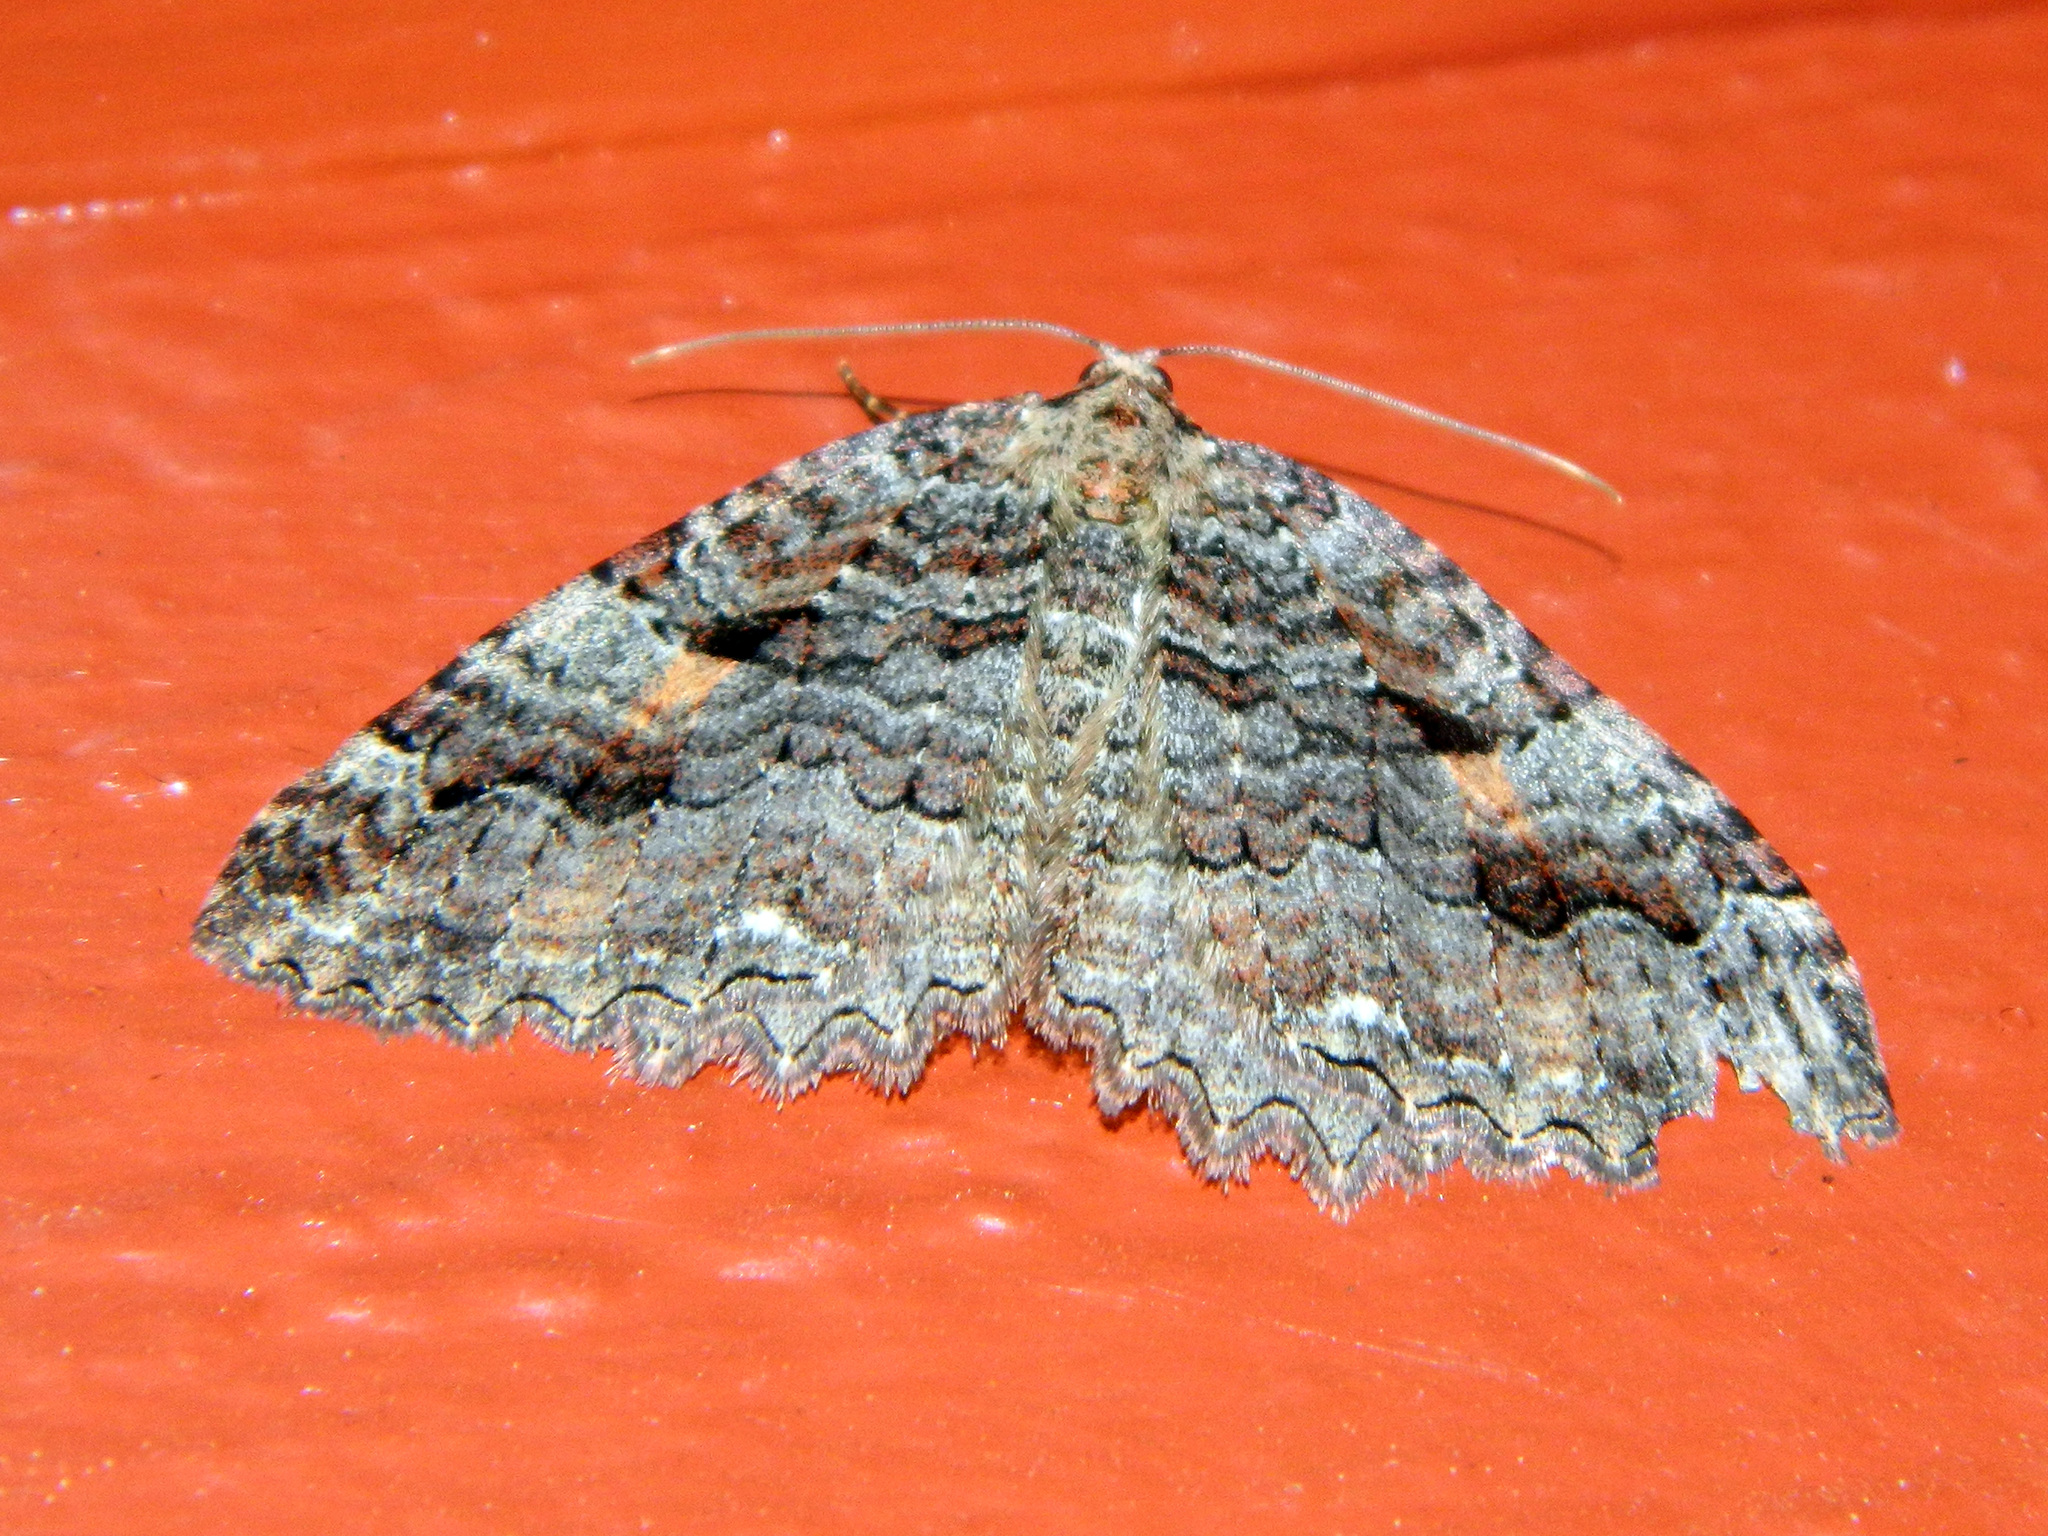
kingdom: Animalia
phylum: Arthropoda
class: Insecta
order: Lepidoptera
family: Geometridae
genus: Triphosa
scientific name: Triphosa haesitata
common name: Tissue moth
